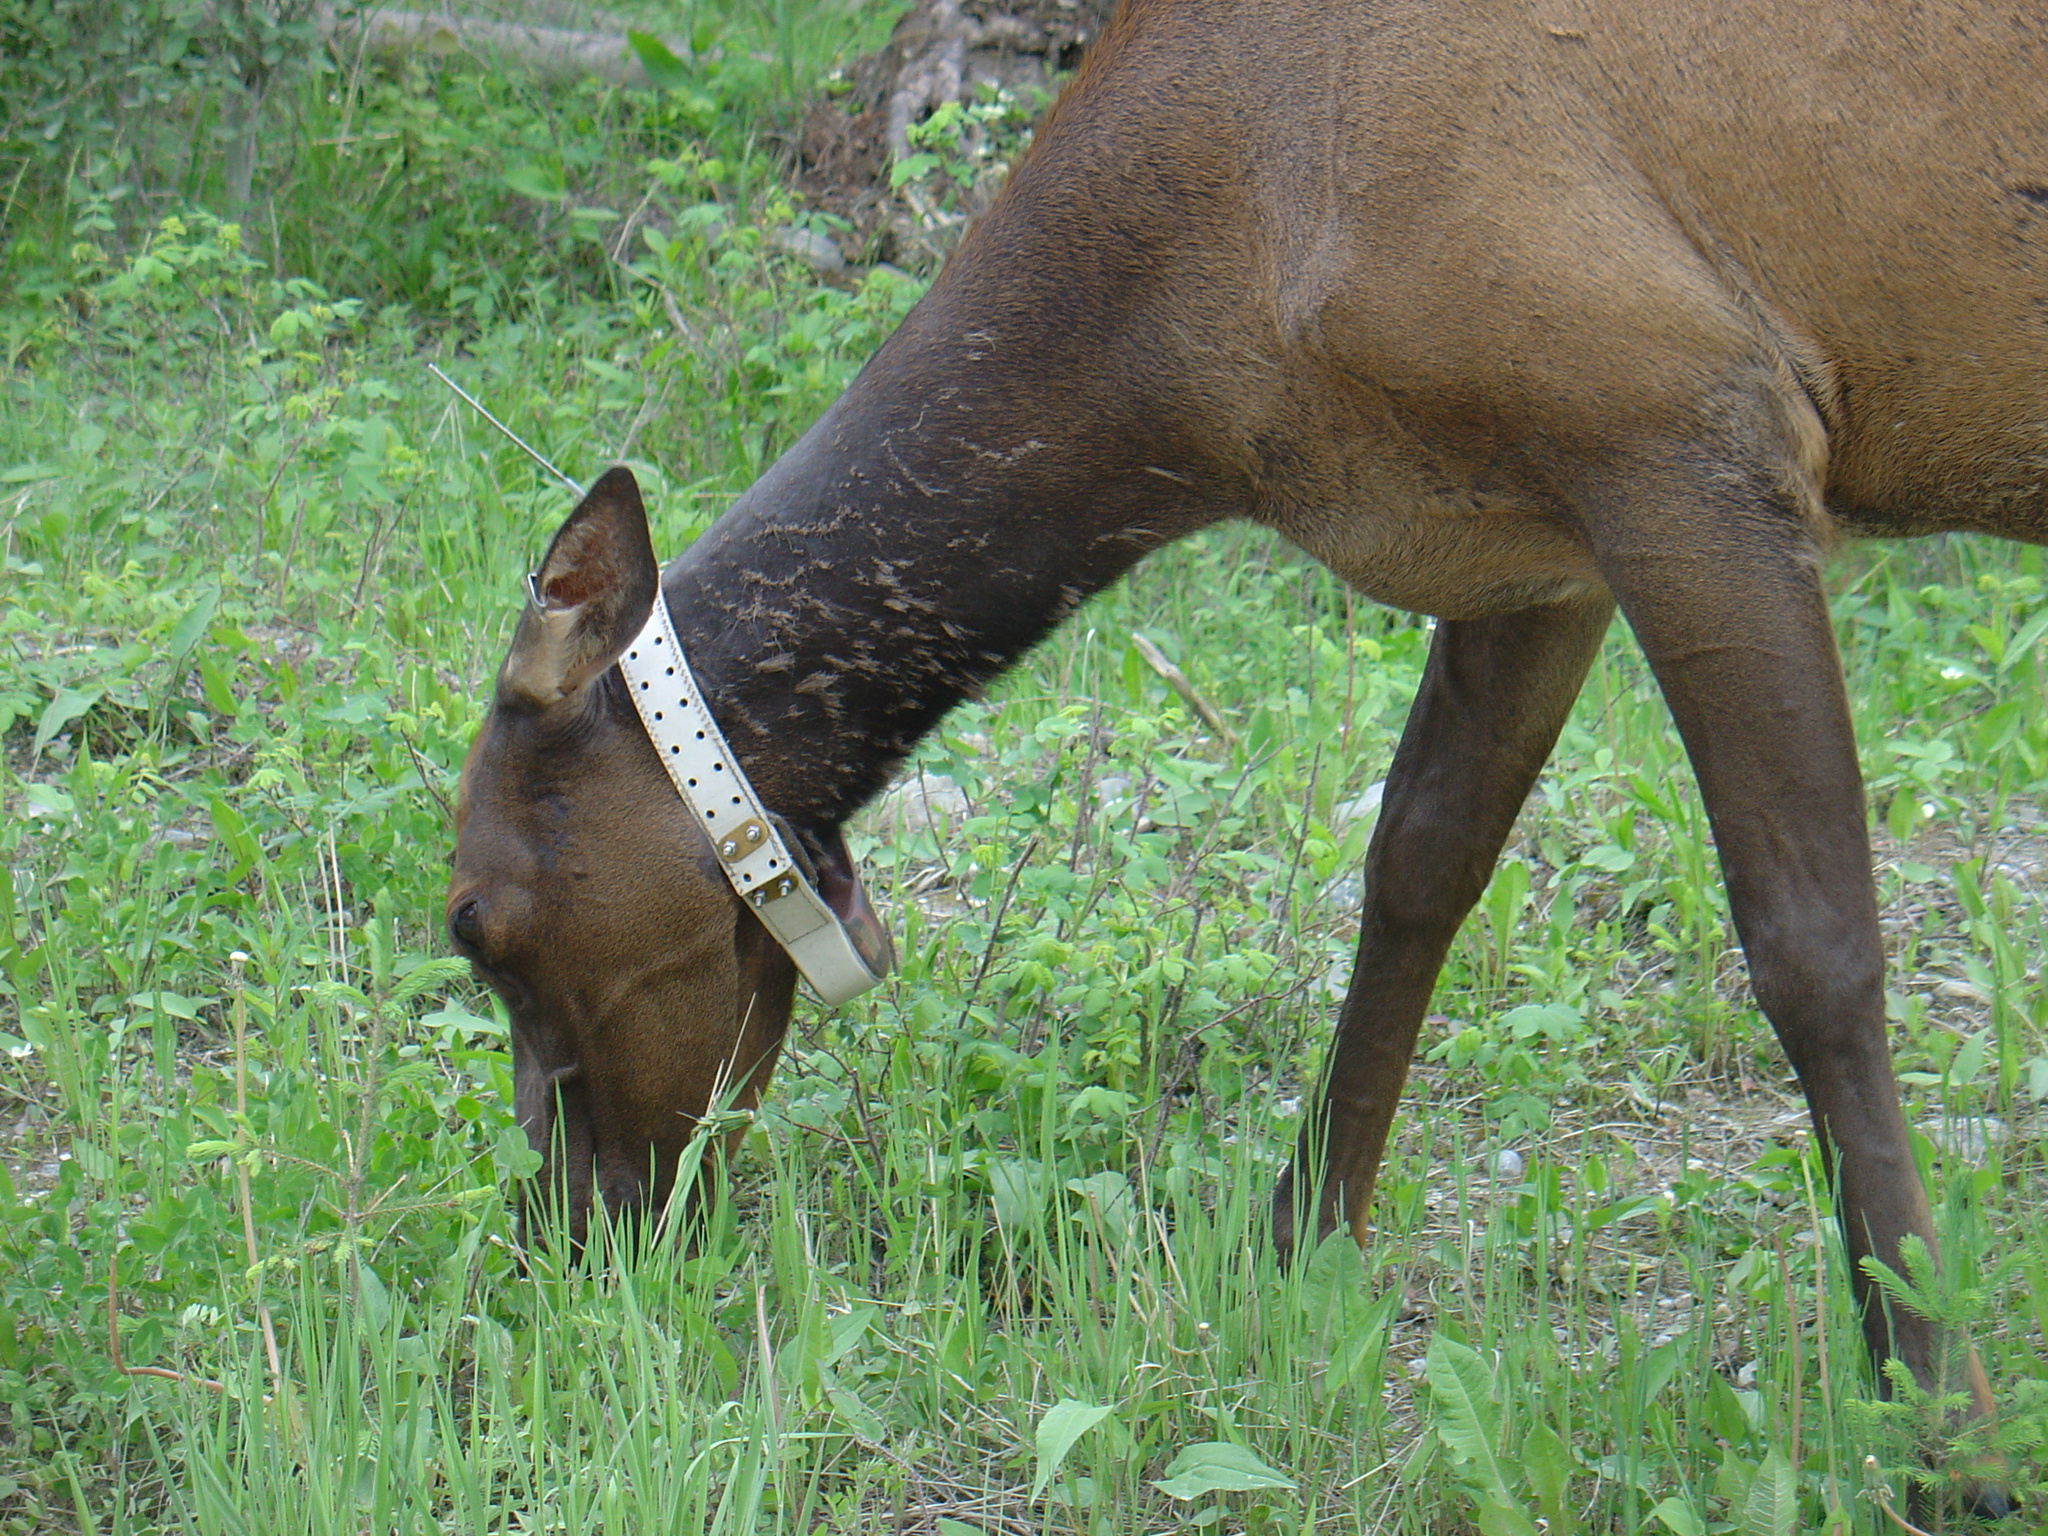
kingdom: Animalia
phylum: Chordata
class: Mammalia
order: Artiodactyla
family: Cervidae
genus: Cervus
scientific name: Cervus elaphus
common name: Red deer
